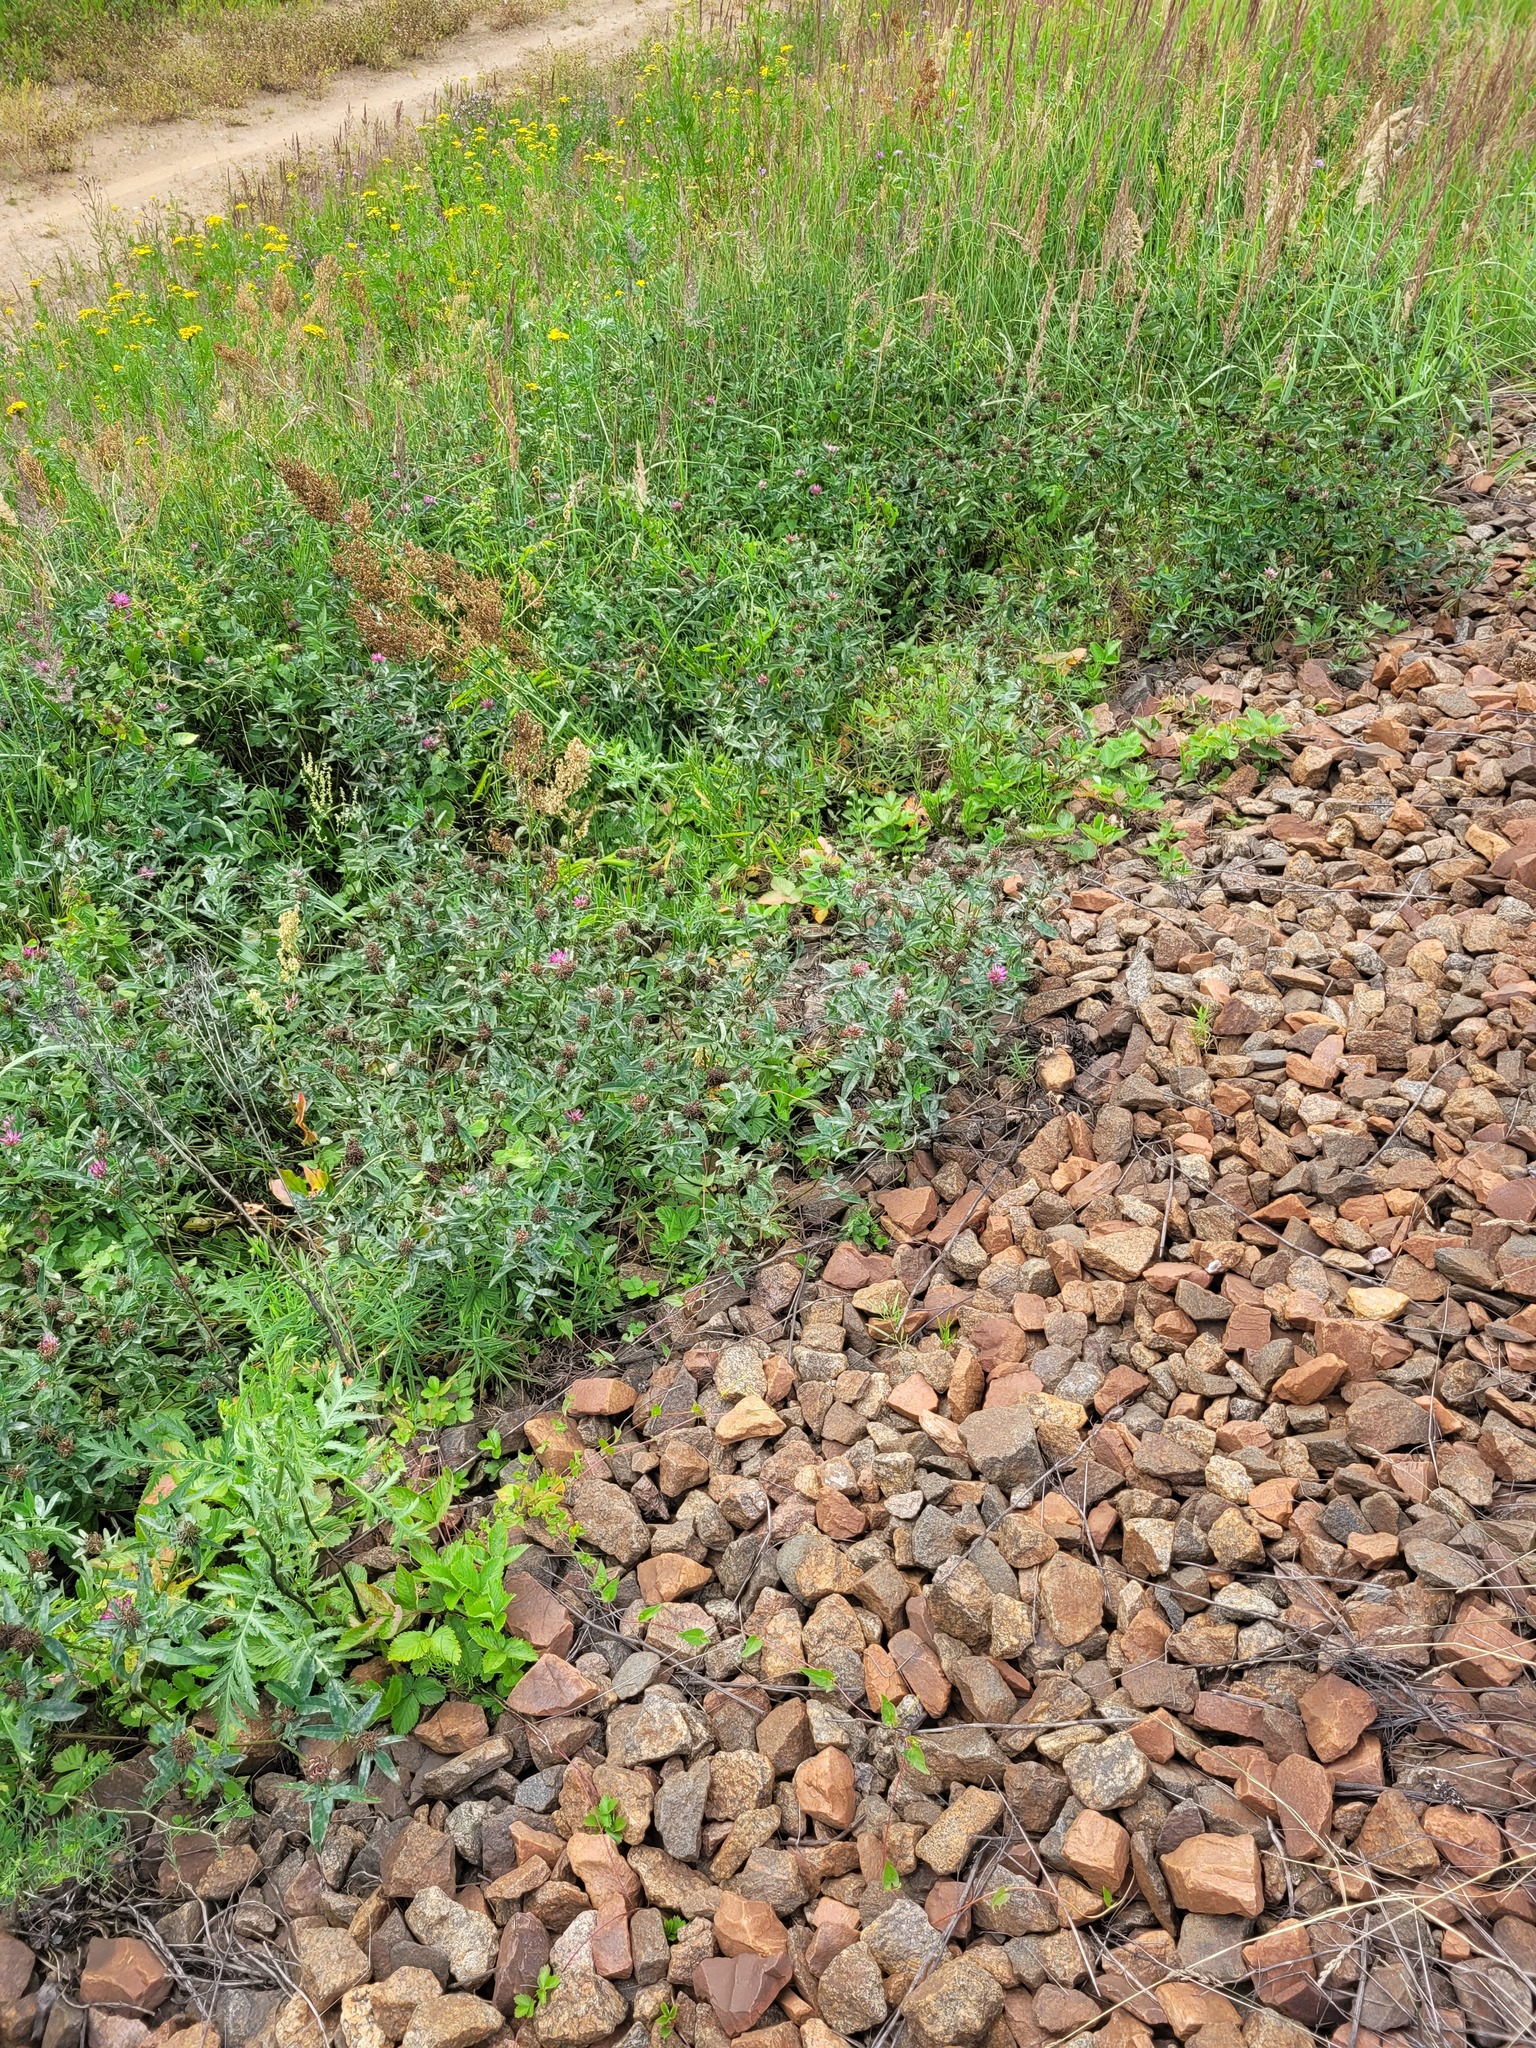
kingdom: Plantae
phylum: Tracheophyta
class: Magnoliopsida
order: Fabales
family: Fabaceae
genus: Trifolium
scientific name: Trifolium medium
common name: Zigzag clover
